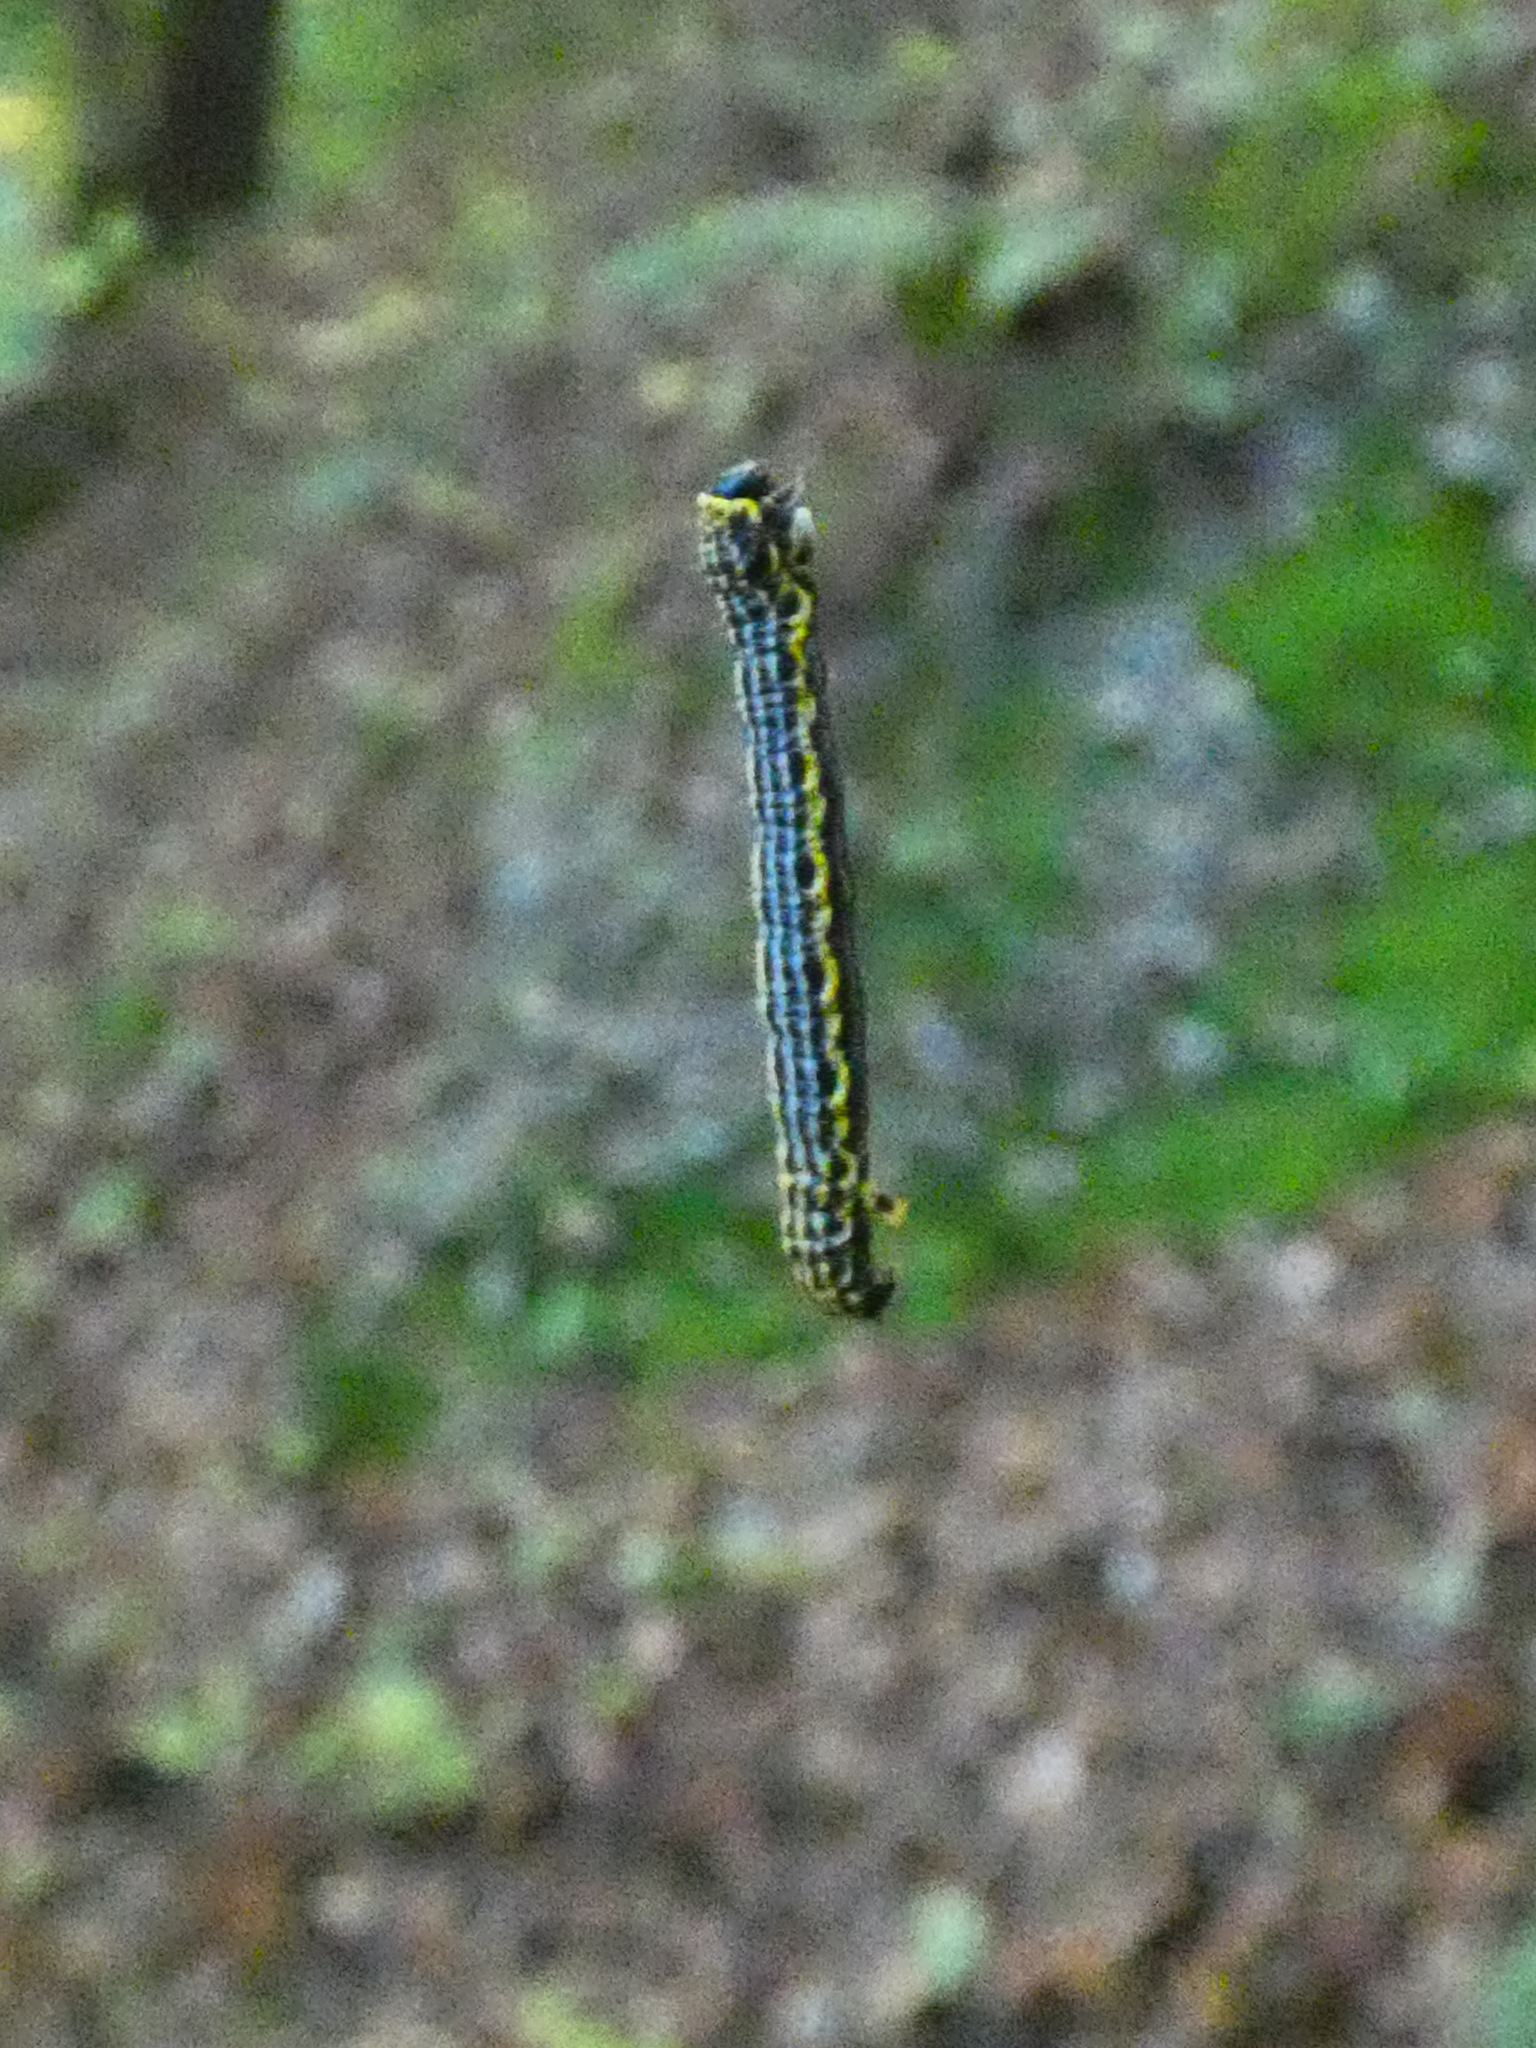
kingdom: Animalia
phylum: Arthropoda
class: Insecta
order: Lepidoptera
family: Geometridae
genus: Abraxas
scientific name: Abraxas sylvata
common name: Clouded magpie
